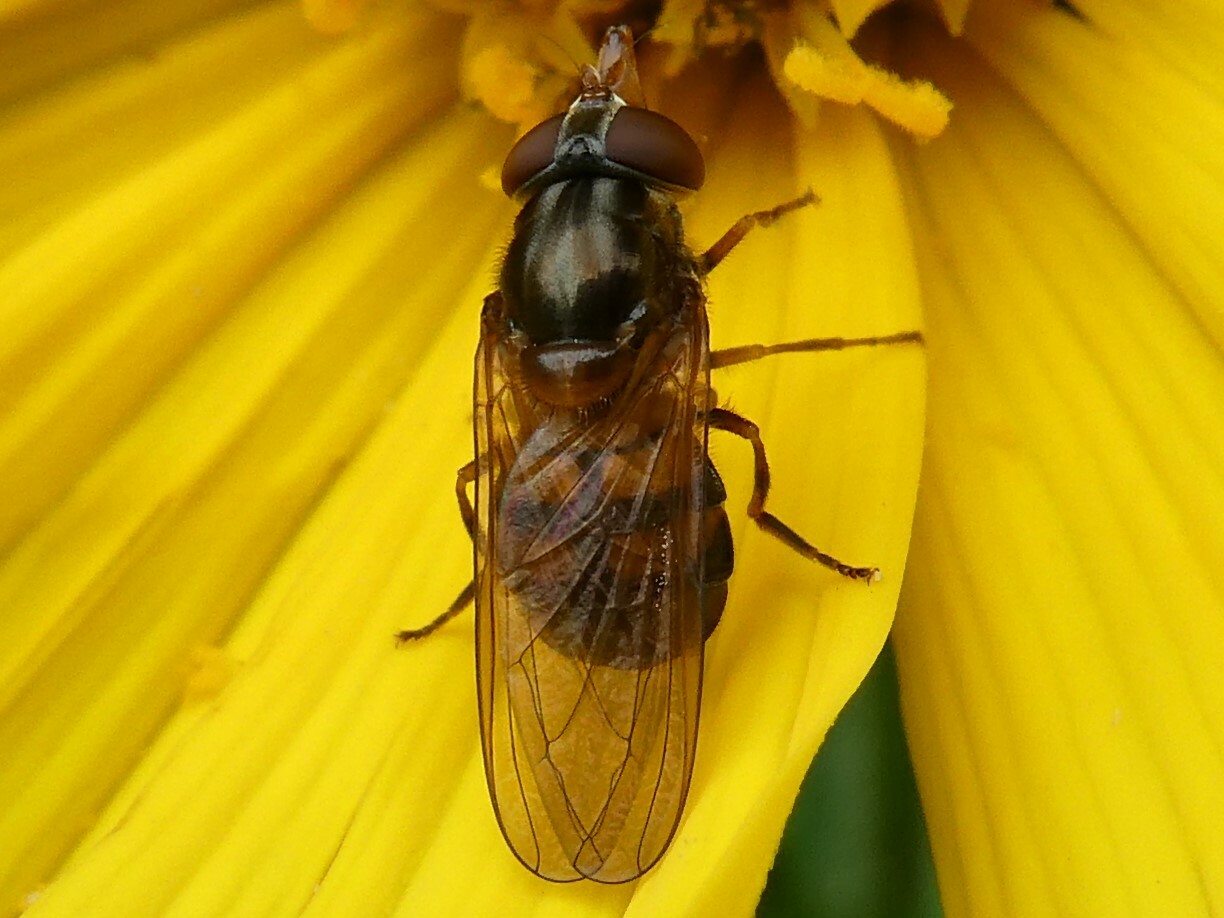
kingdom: Animalia
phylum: Arthropoda
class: Insecta
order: Diptera
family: Syrphidae
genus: Rhingia
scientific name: Rhingia nasica
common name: American snout fly
